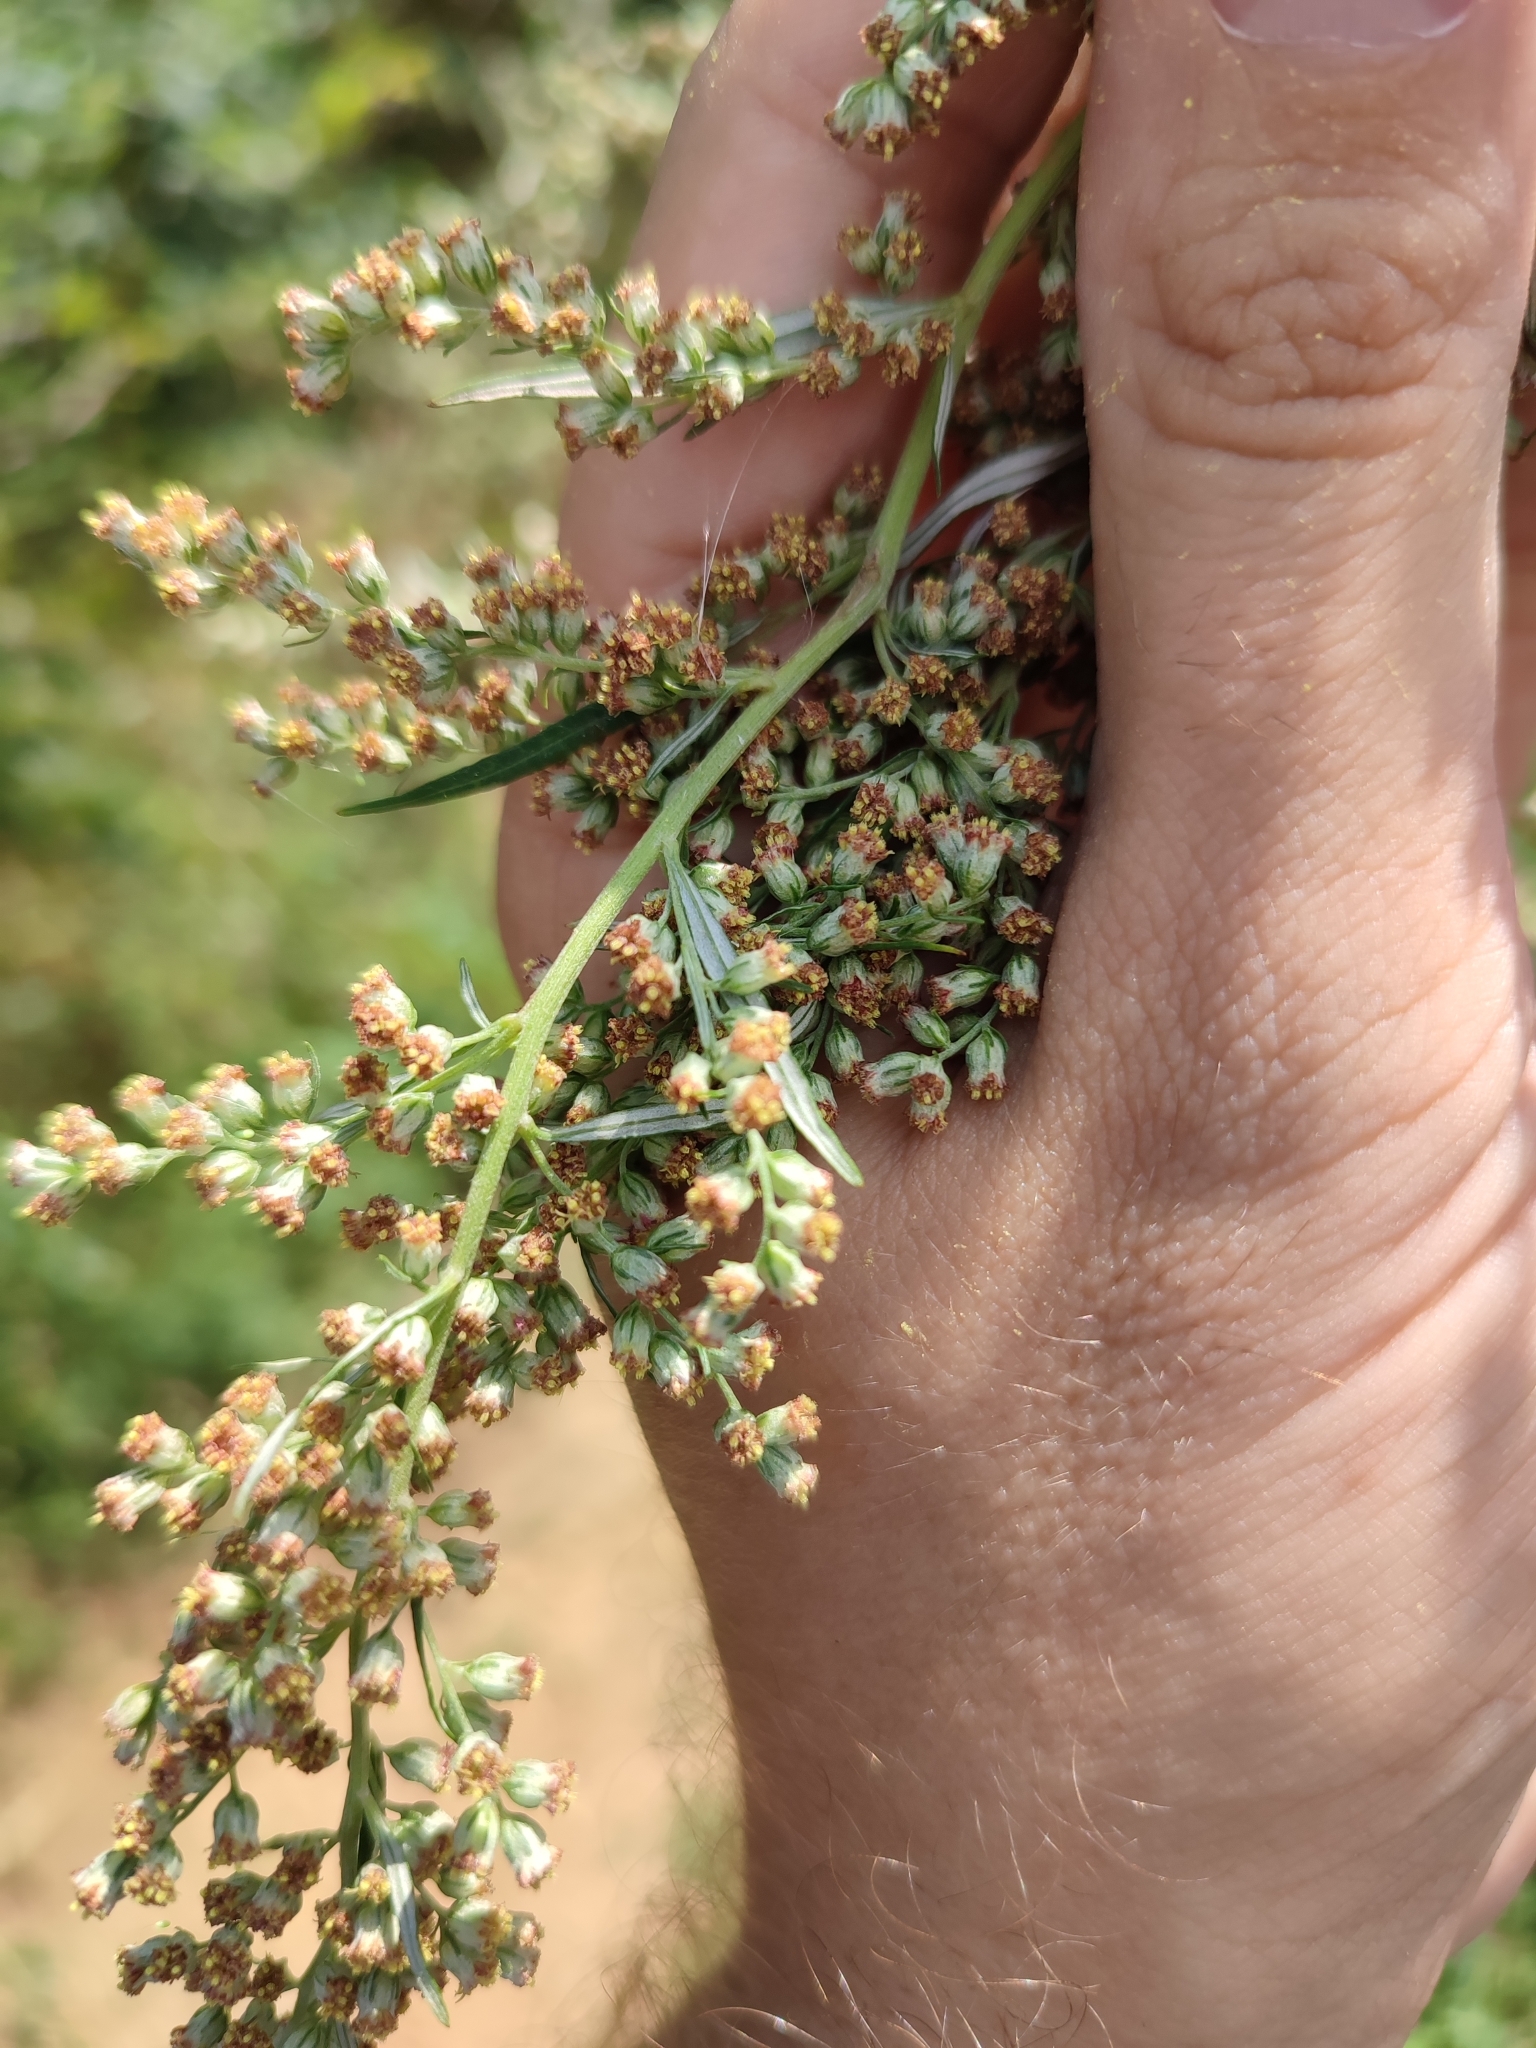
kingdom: Plantae
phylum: Tracheophyta
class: Magnoliopsida
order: Asterales
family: Asteraceae
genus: Artemisia
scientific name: Artemisia vulgaris
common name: Mugwort
